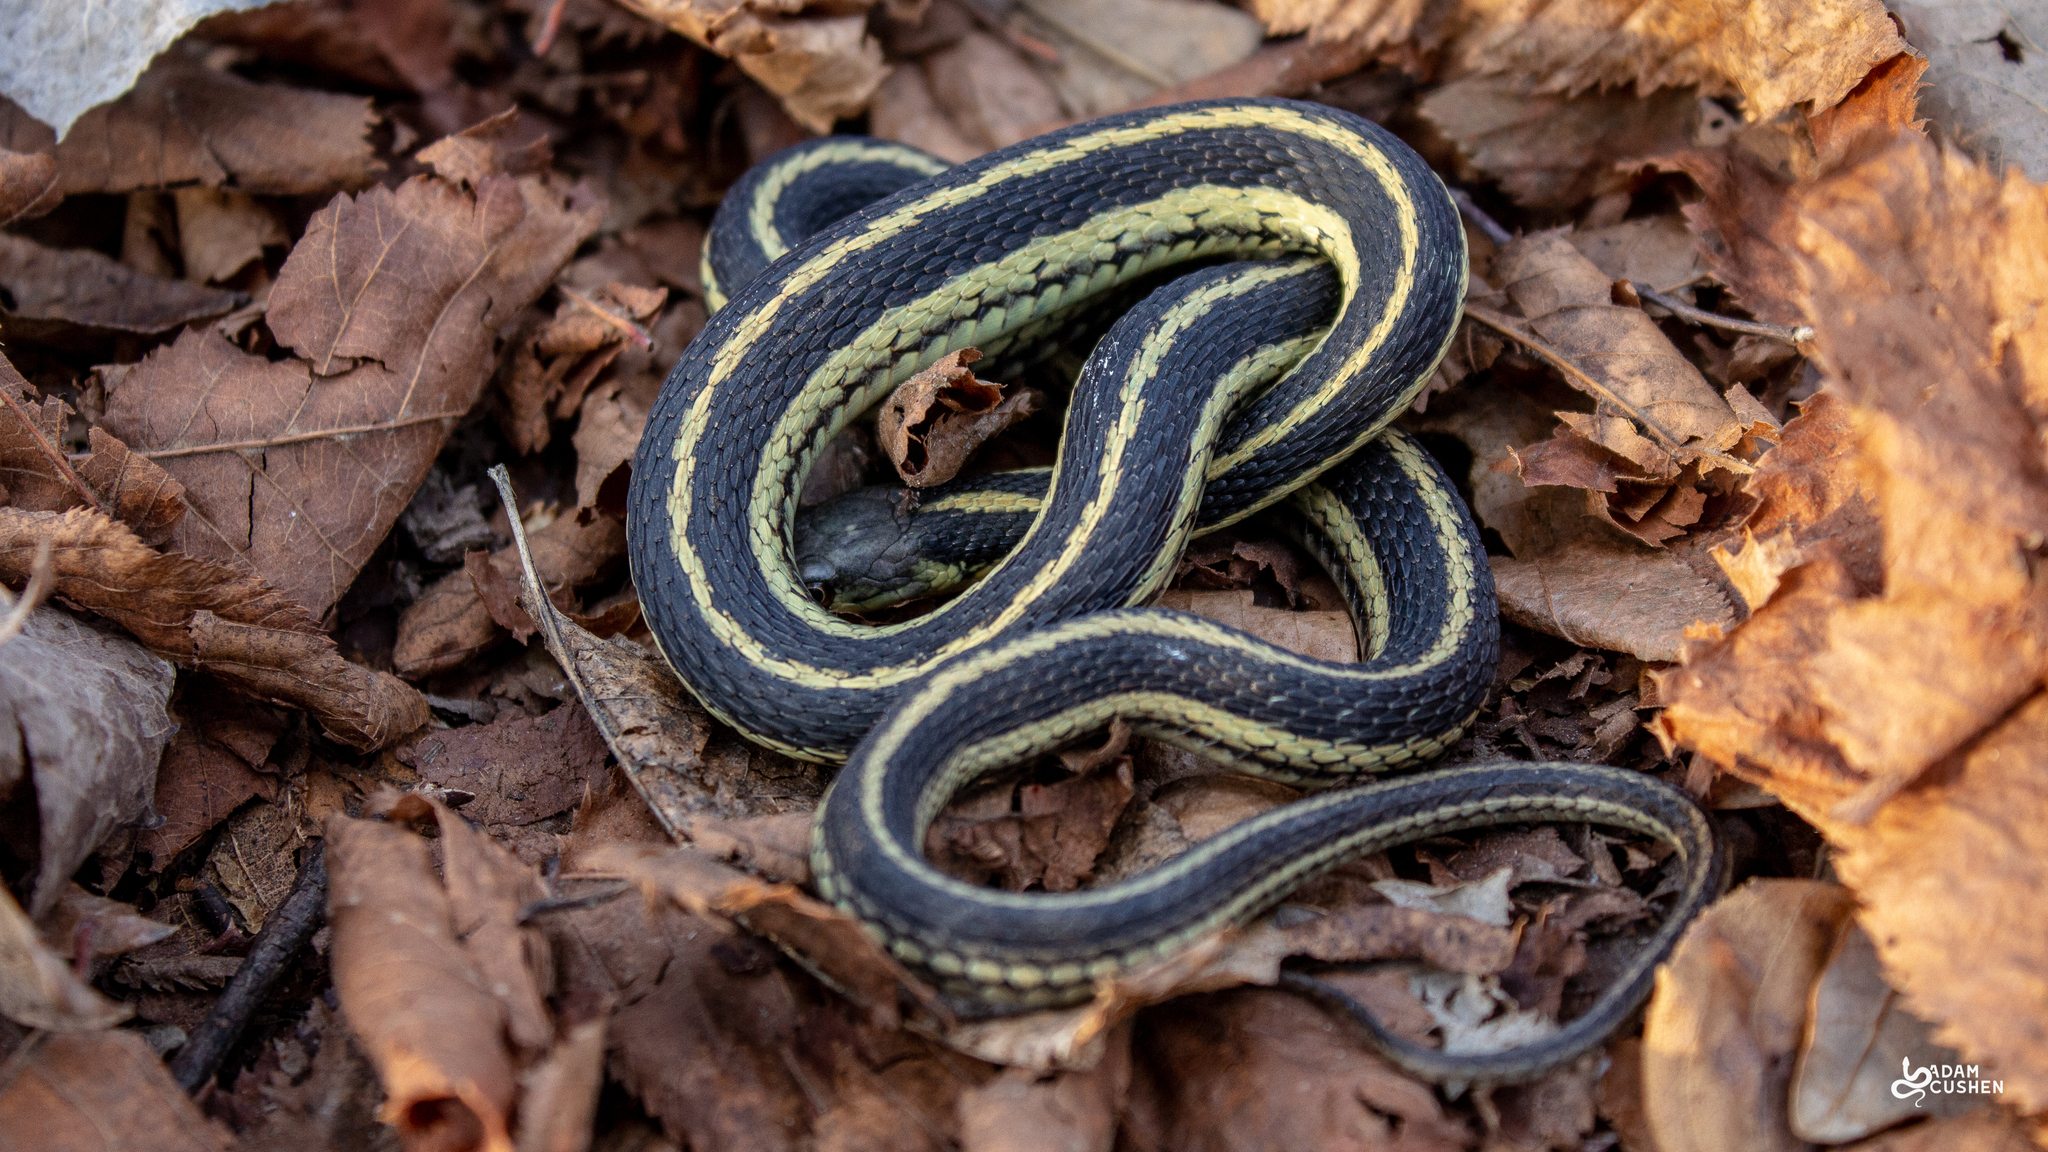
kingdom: Animalia
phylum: Chordata
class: Squamata
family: Colubridae
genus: Thamnophis
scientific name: Thamnophis sirtalis
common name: Common garter snake
